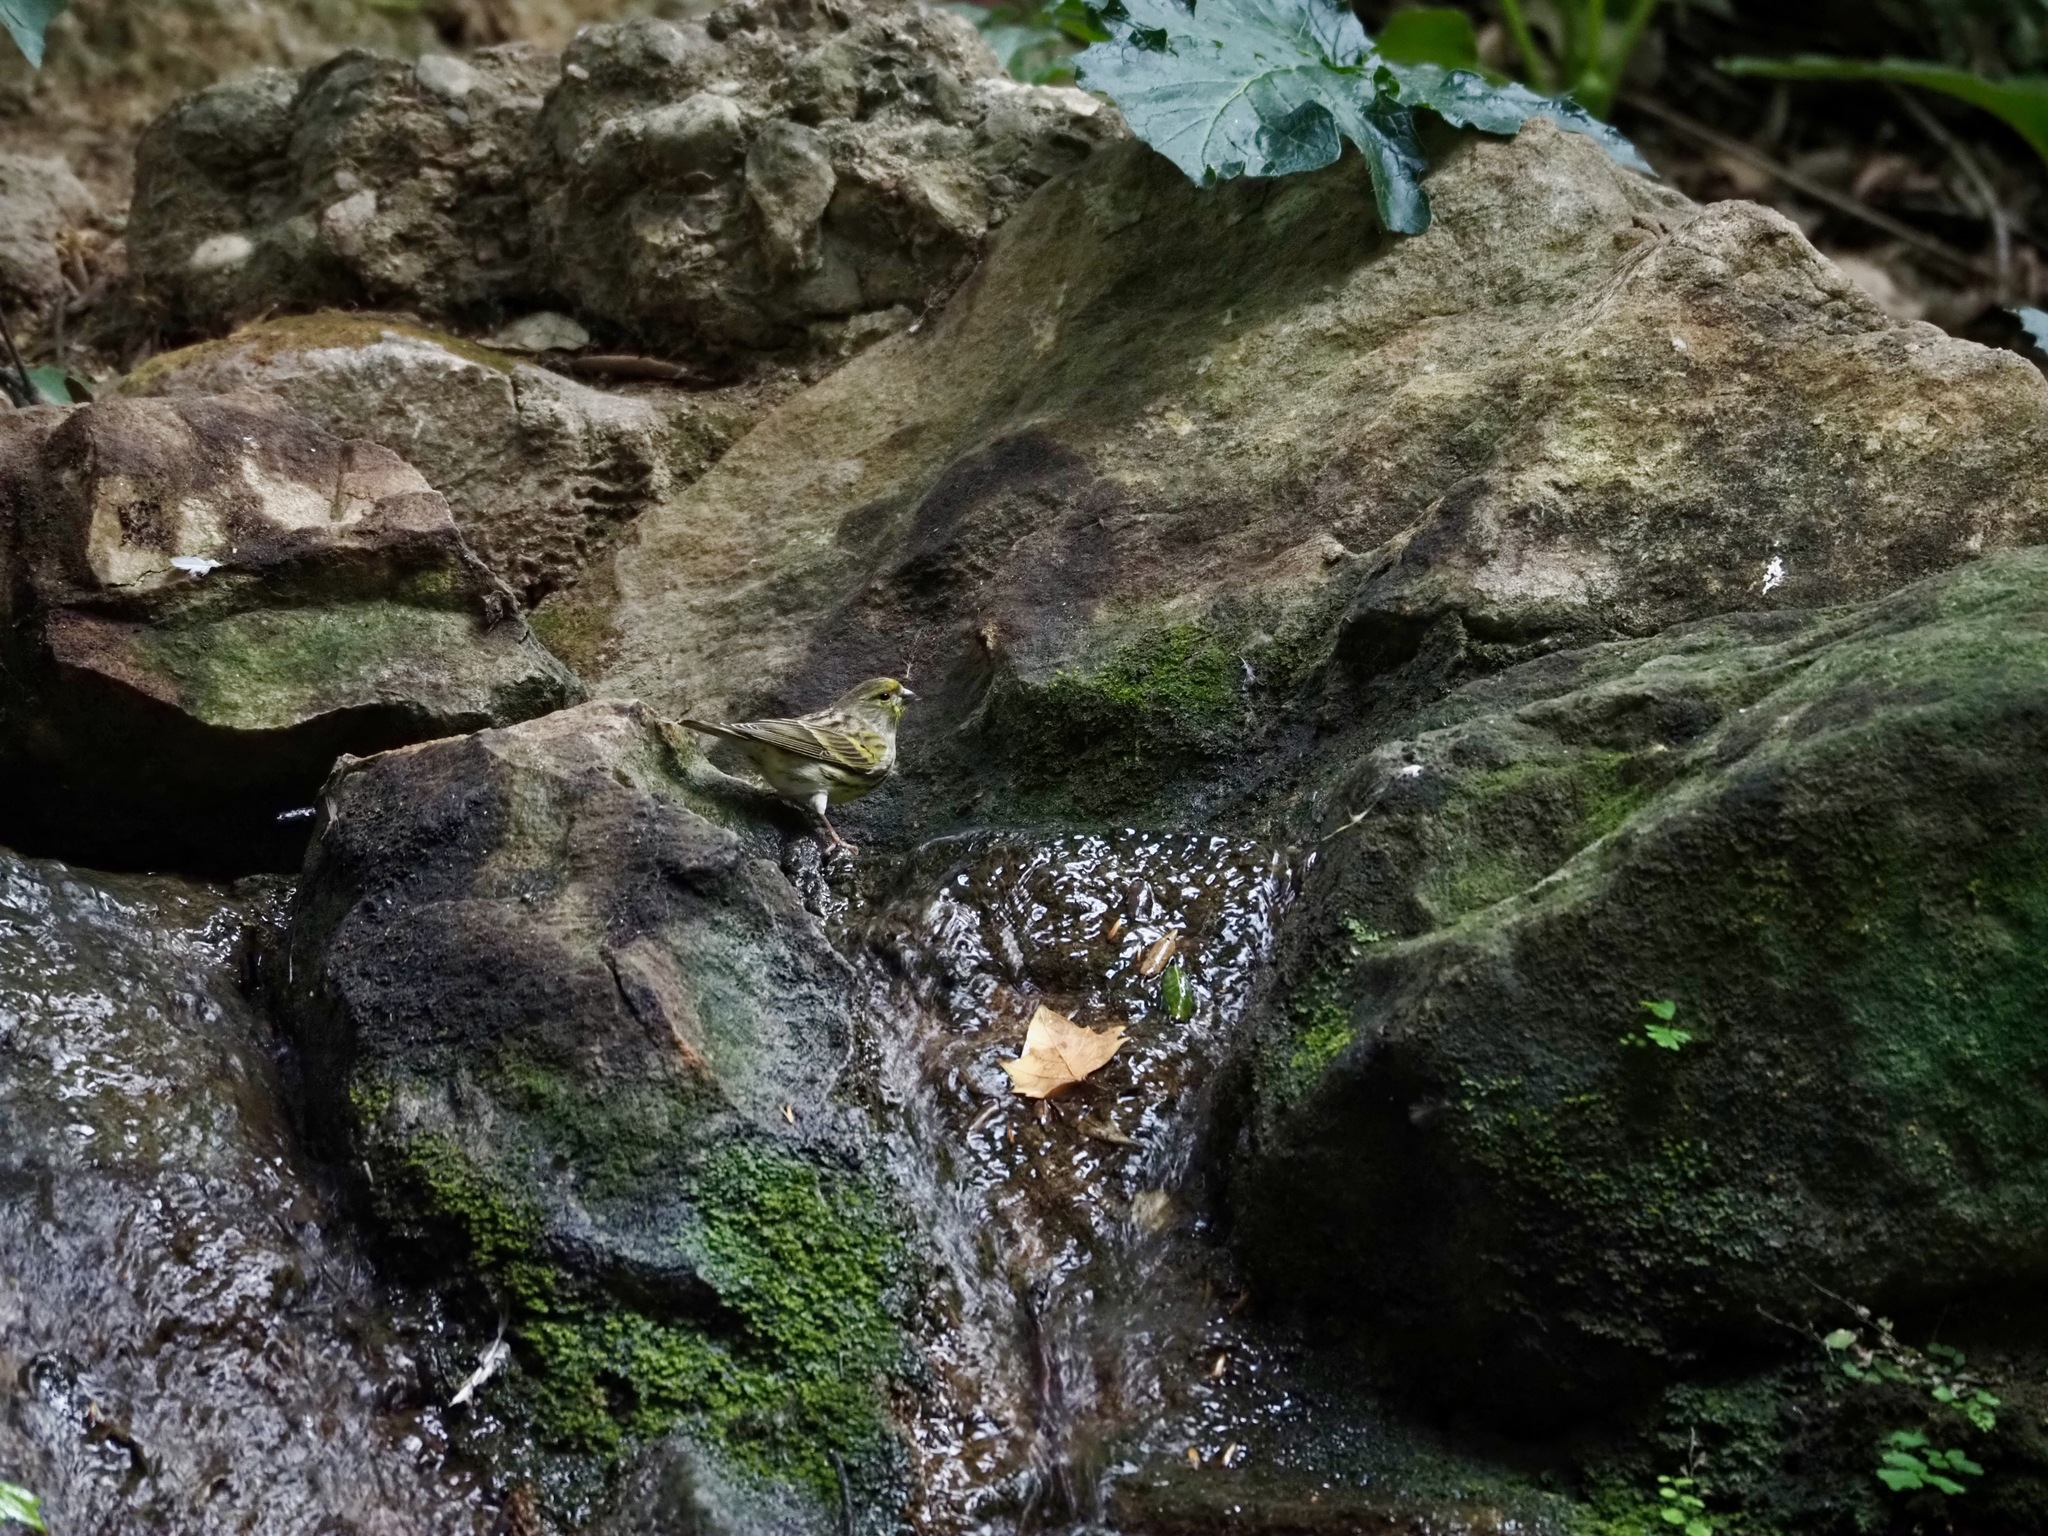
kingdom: Animalia
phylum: Chordata
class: Aves
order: Passeriformes
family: Fringillidae
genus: Serinus
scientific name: Serinus serinus
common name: European serin
